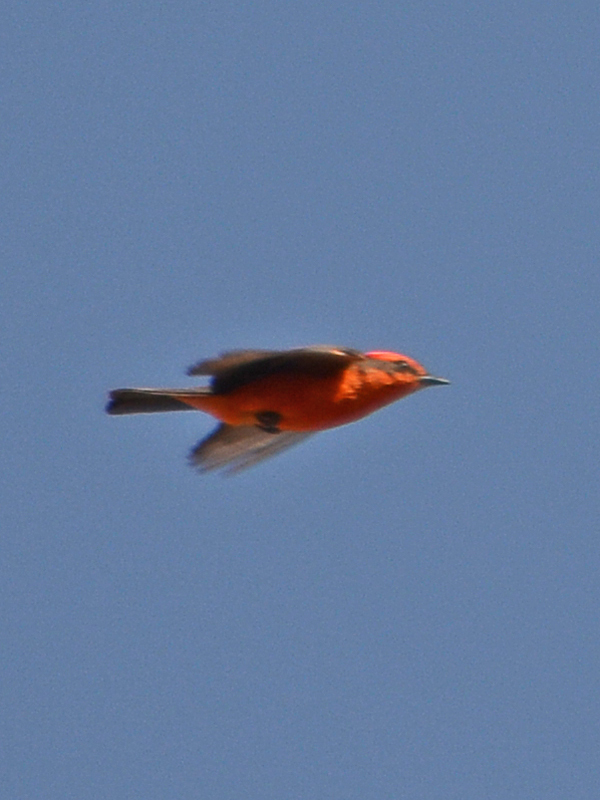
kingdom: Animalia
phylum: Chordata
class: Aves
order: Passeriformes
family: Tyrannidae
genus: Pyrocephalus
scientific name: Pyrocephalus rubinus
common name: Vermilion flycatcher
